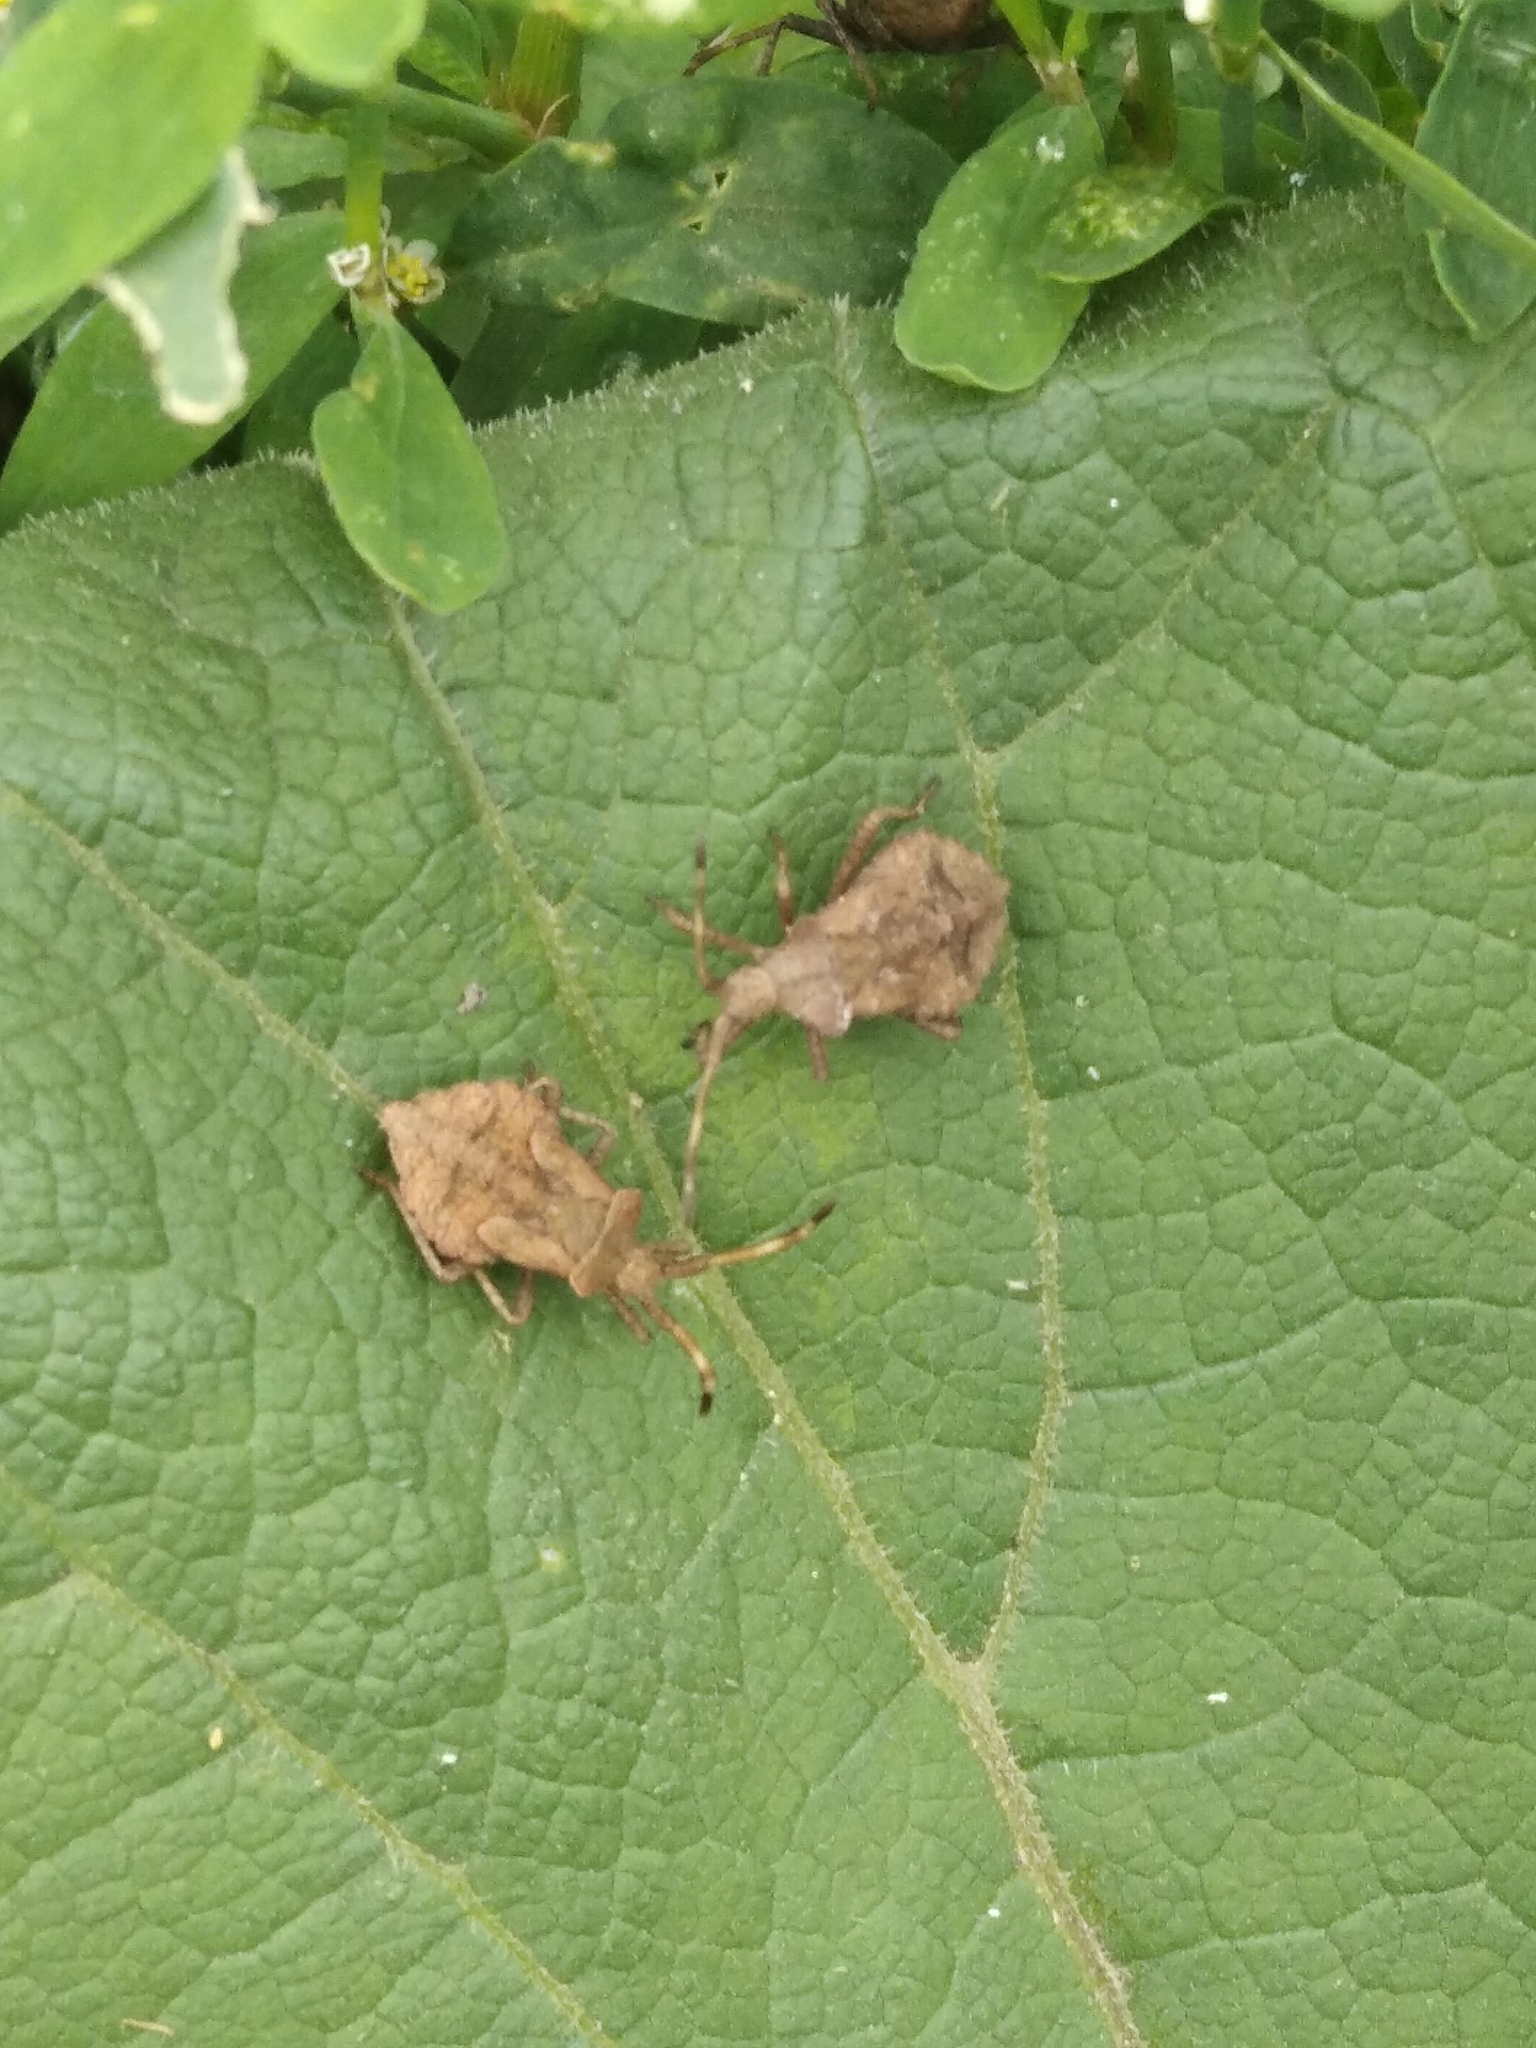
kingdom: Animalia
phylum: Arthropoda
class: Insecta
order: Hemiptera
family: Coreidae
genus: Coreus
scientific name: Coreus marginatus
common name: Dock bug
